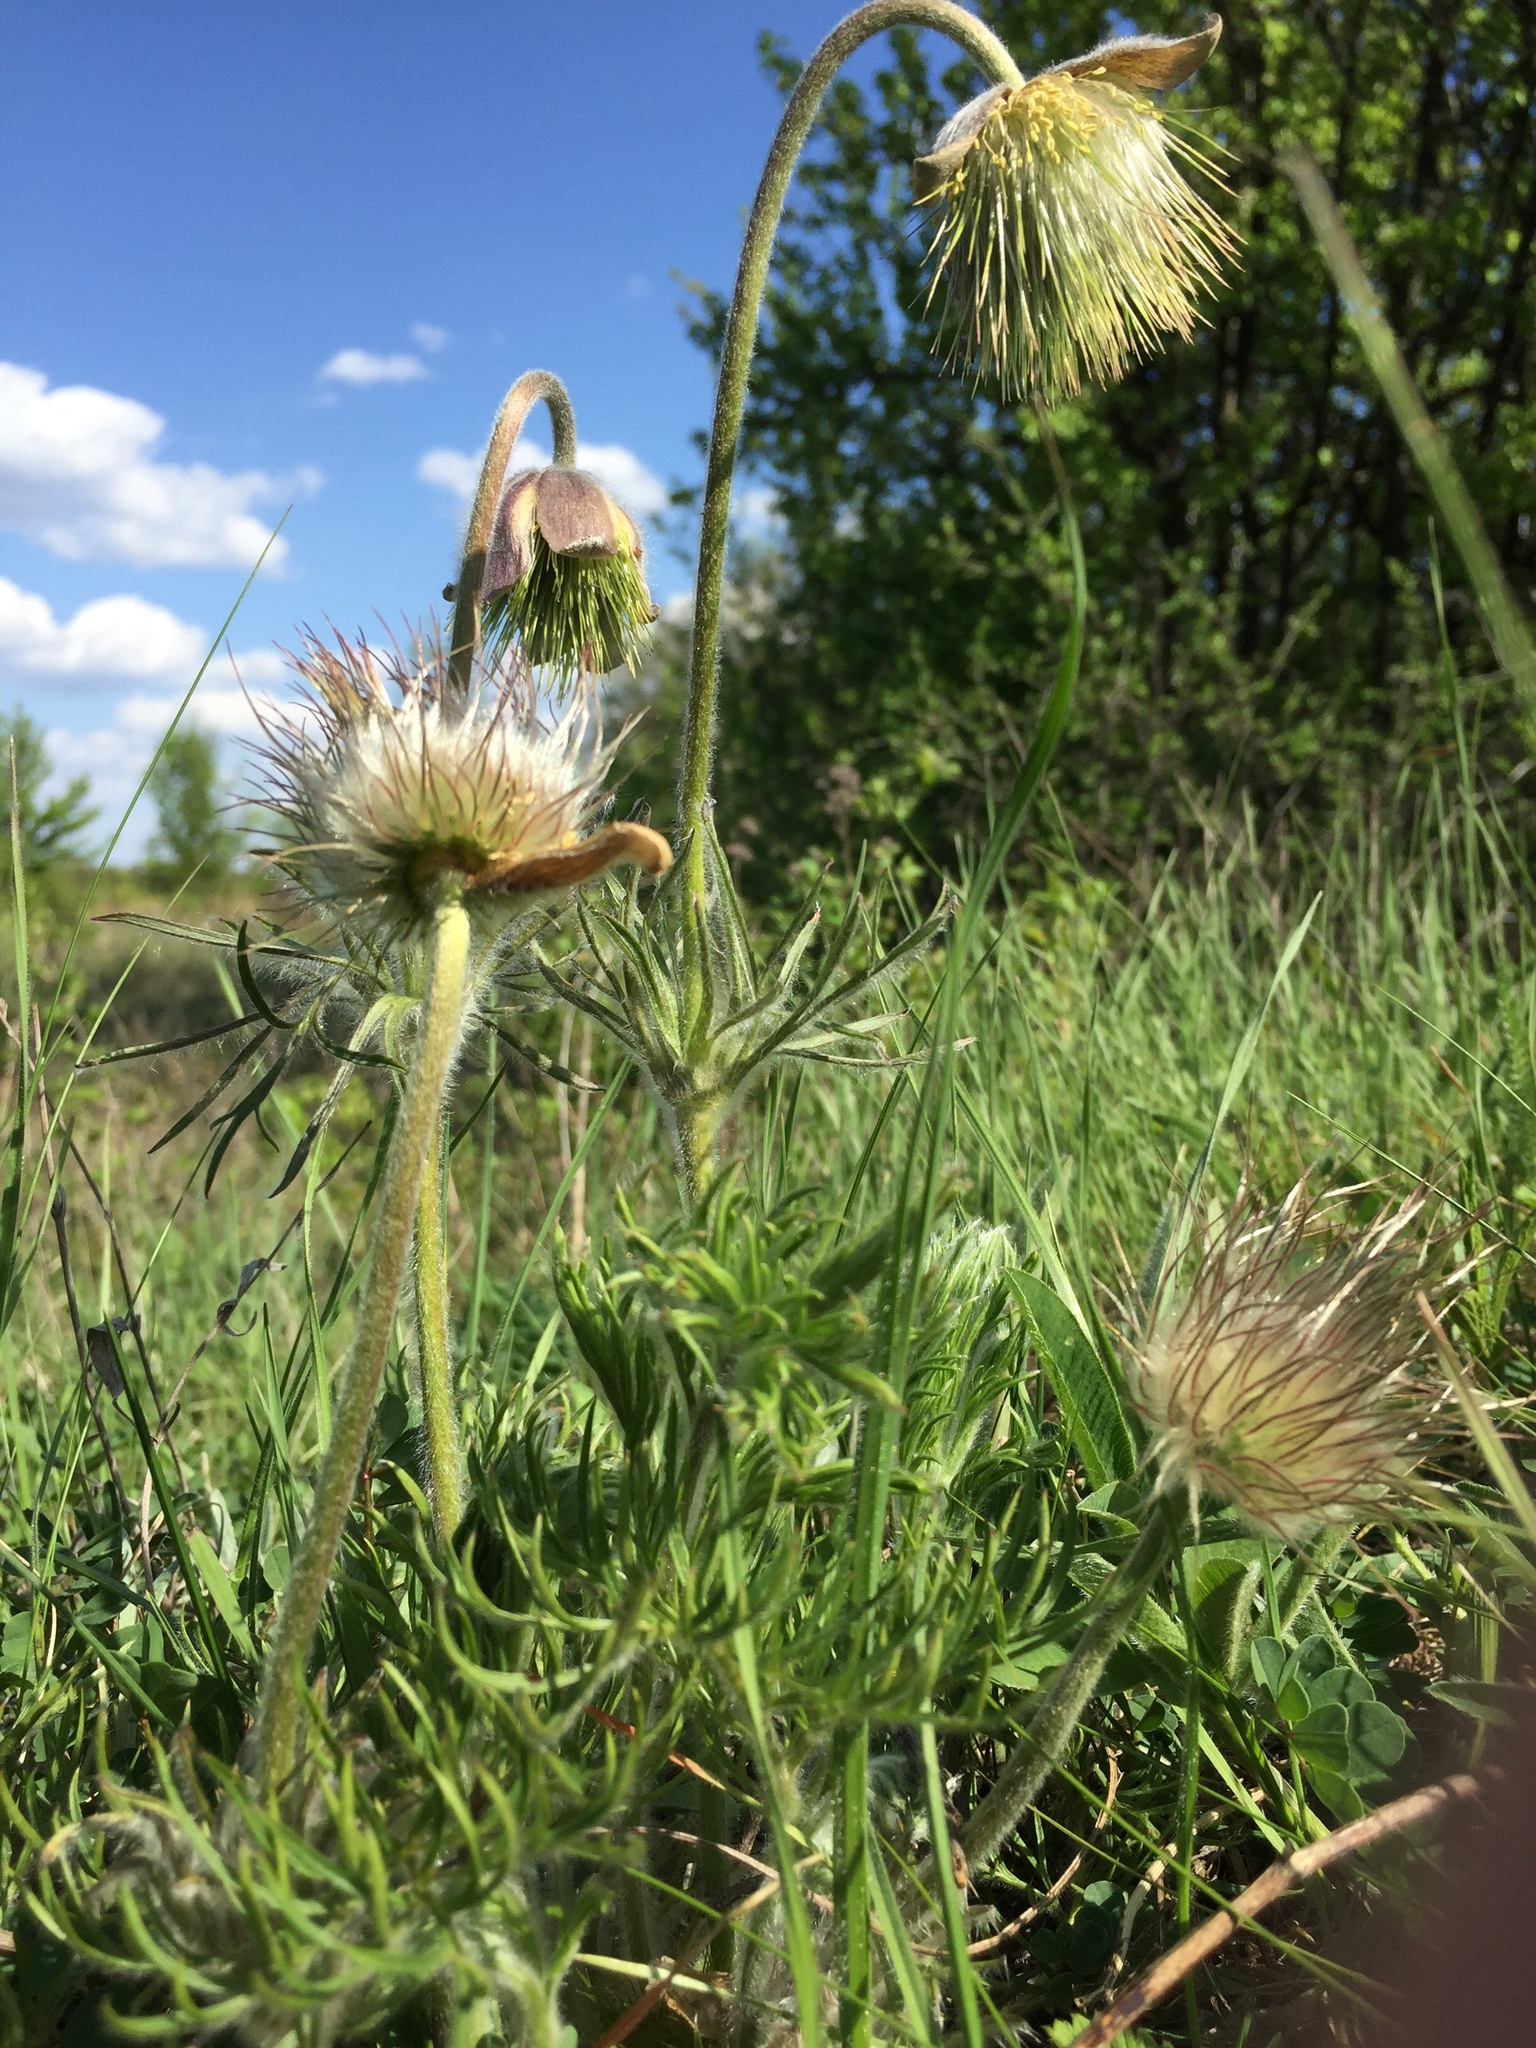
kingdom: Plantae
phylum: Tracheophyta
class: Magnoliopsida
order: Ranunculales
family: Ranunculaceae
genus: Pulsatilla
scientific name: Pulsatilla pratensis
